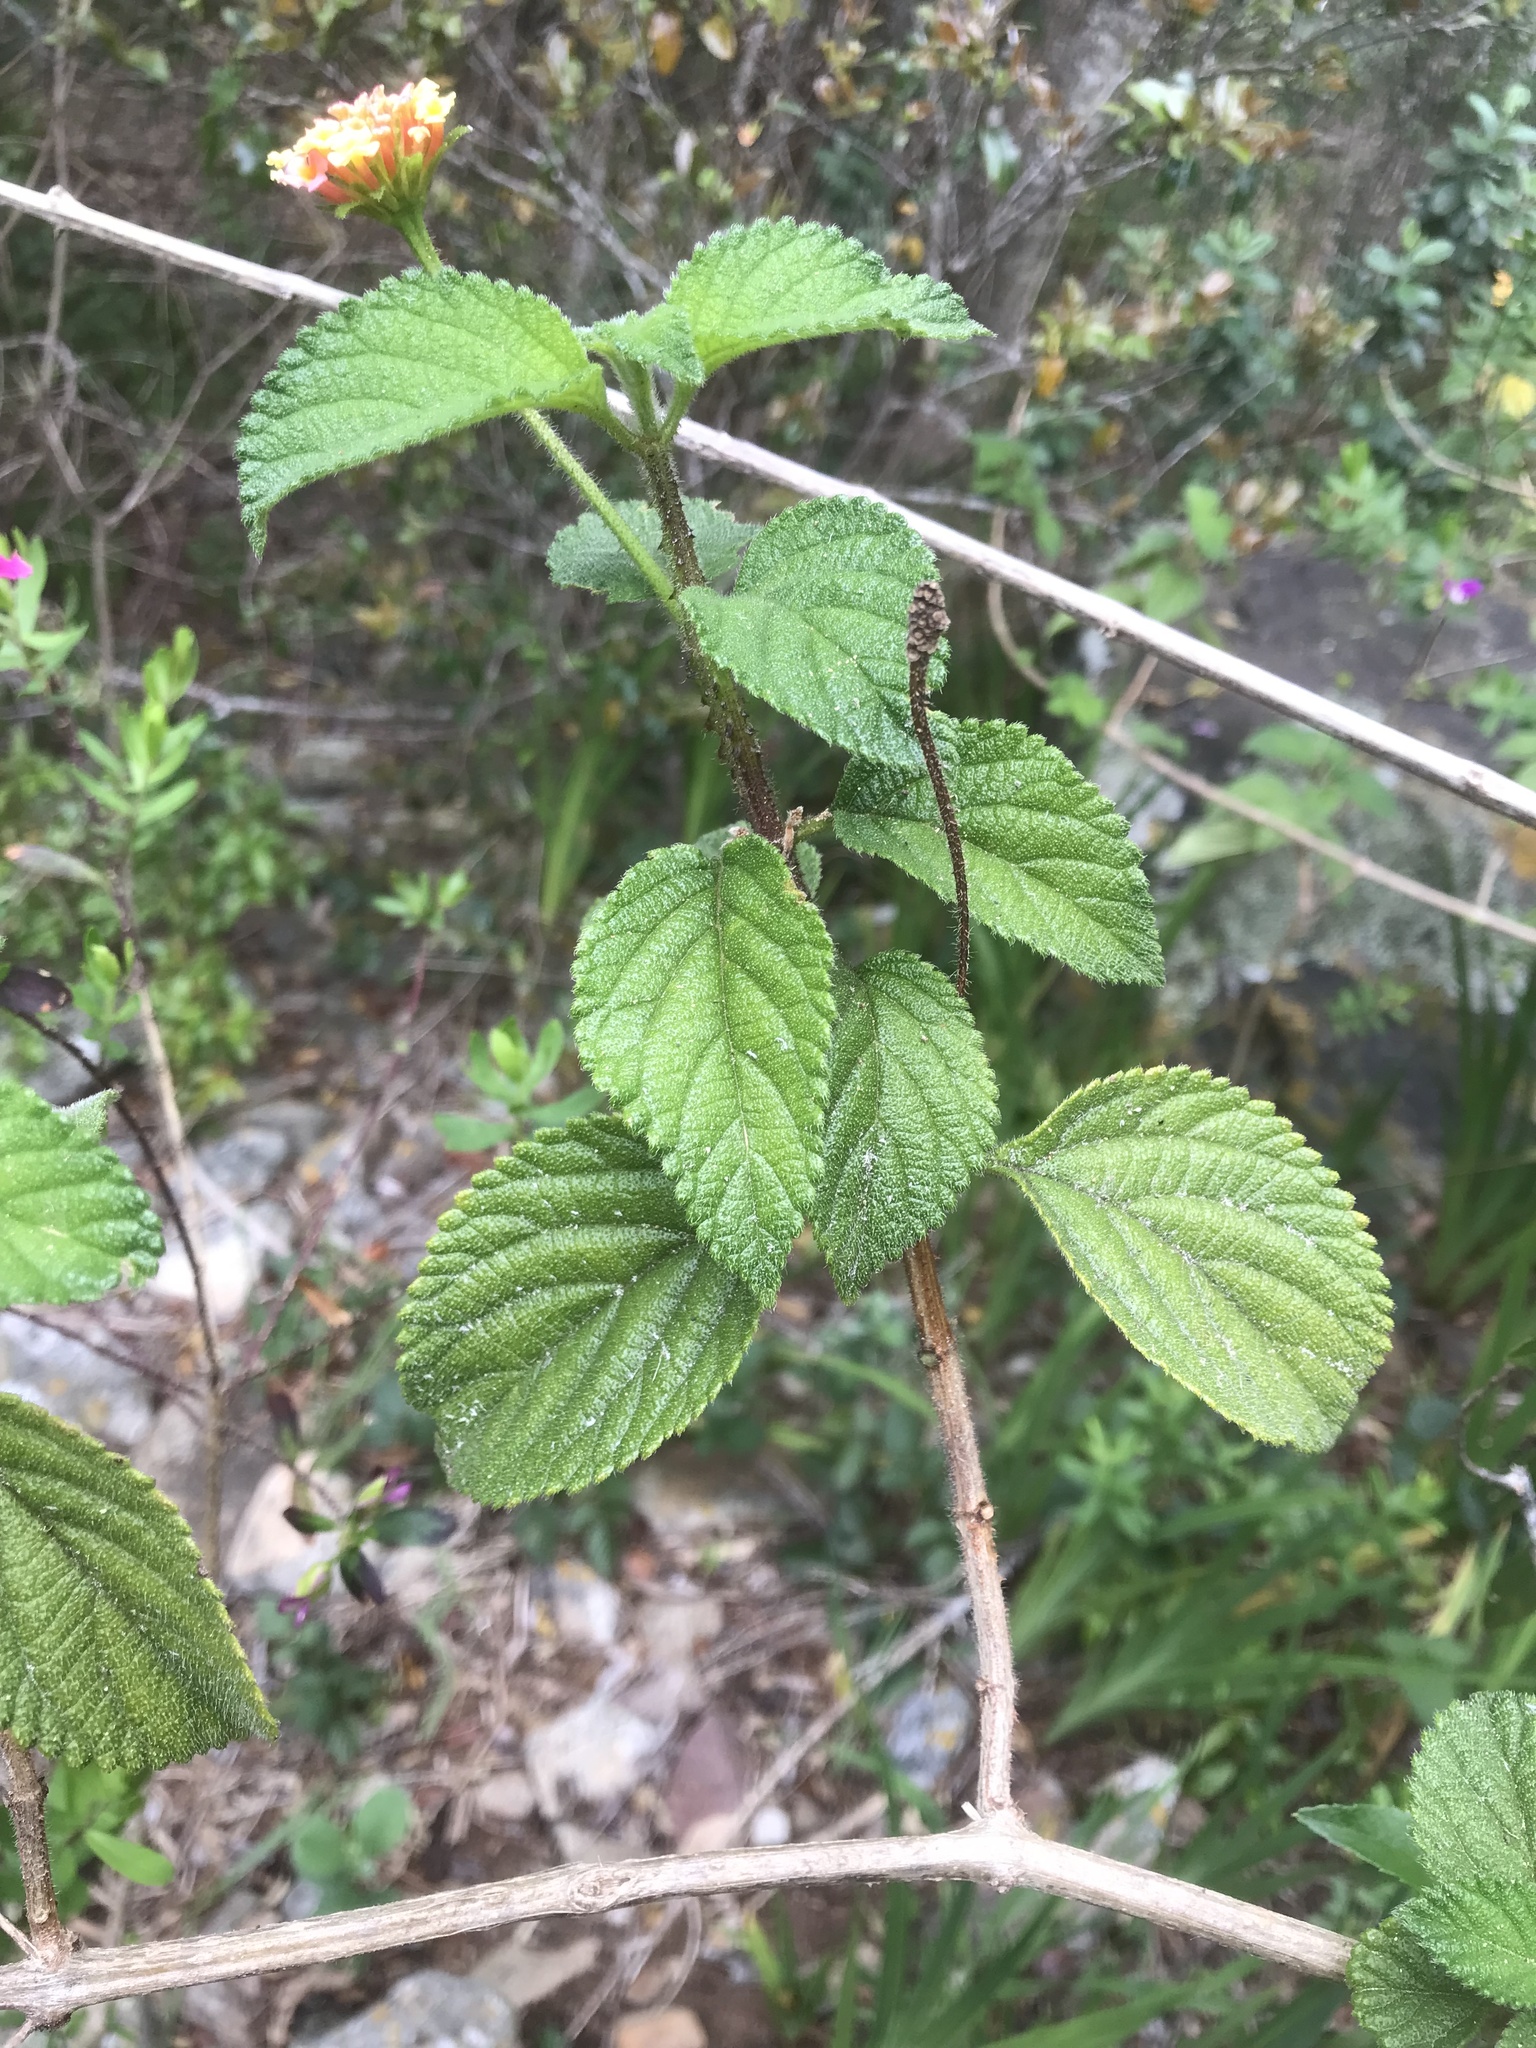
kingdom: Plantae
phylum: Tracheophyta
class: Magnoliopsida
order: Lamiales
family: Verbenaceae
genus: Lantana
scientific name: Lantana camara
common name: Lantana
